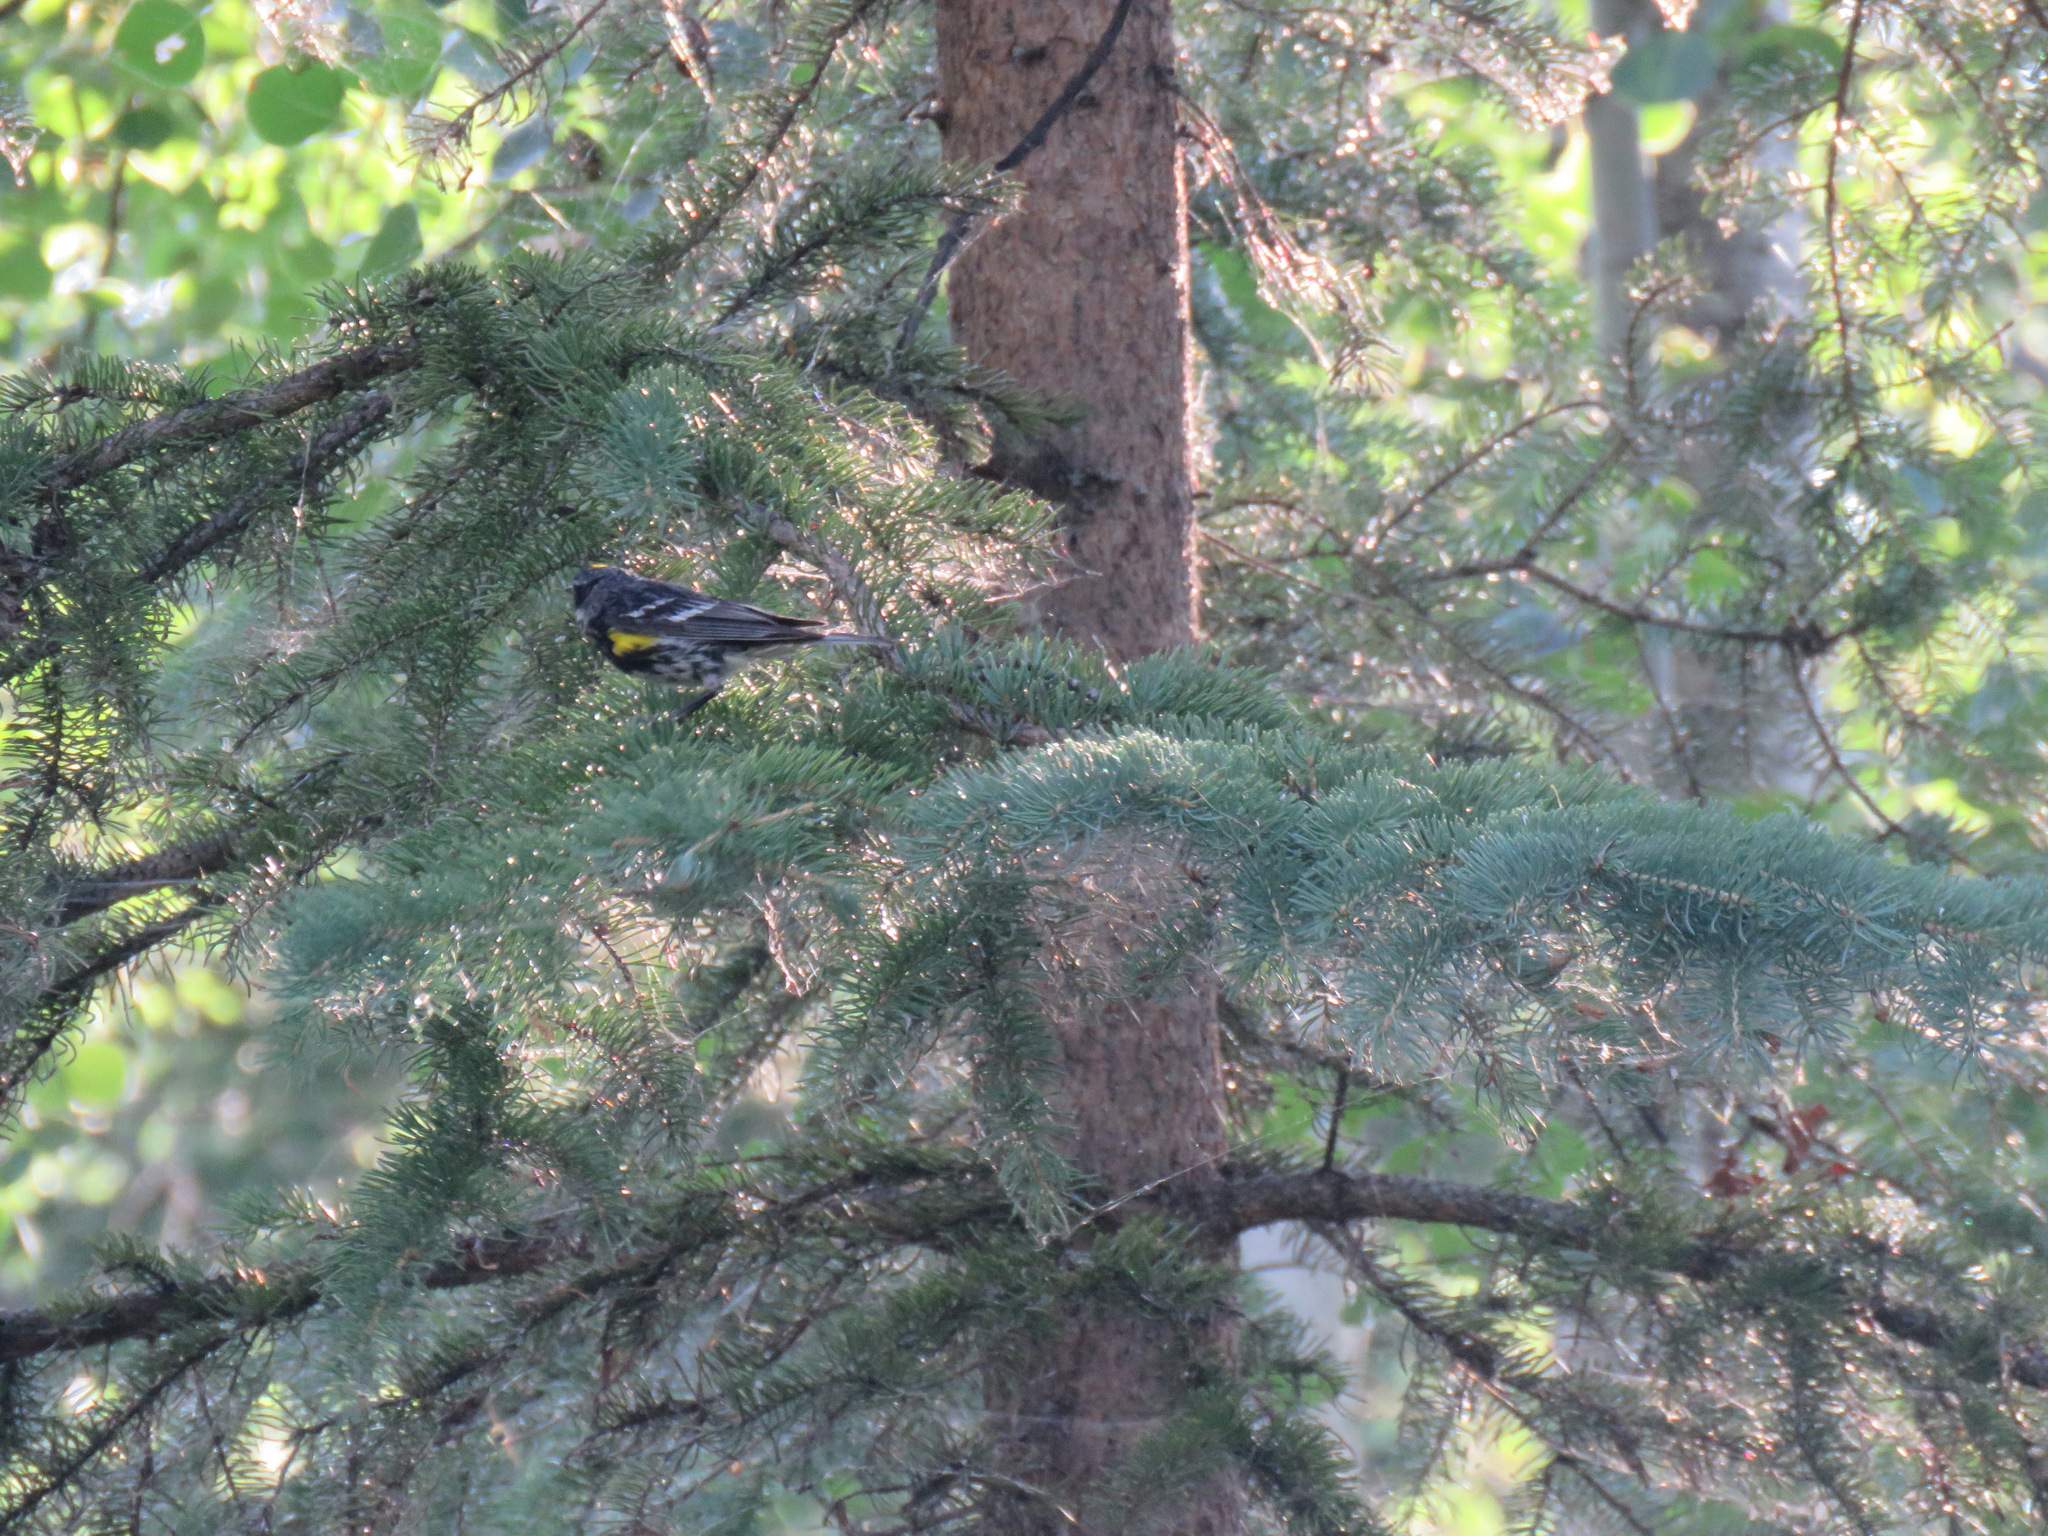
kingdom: Animalia
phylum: Chordata
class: Aves
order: Passeriformes
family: Parulidae
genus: Setophaga
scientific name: Setophaga coronata
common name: Myrtle warbler
